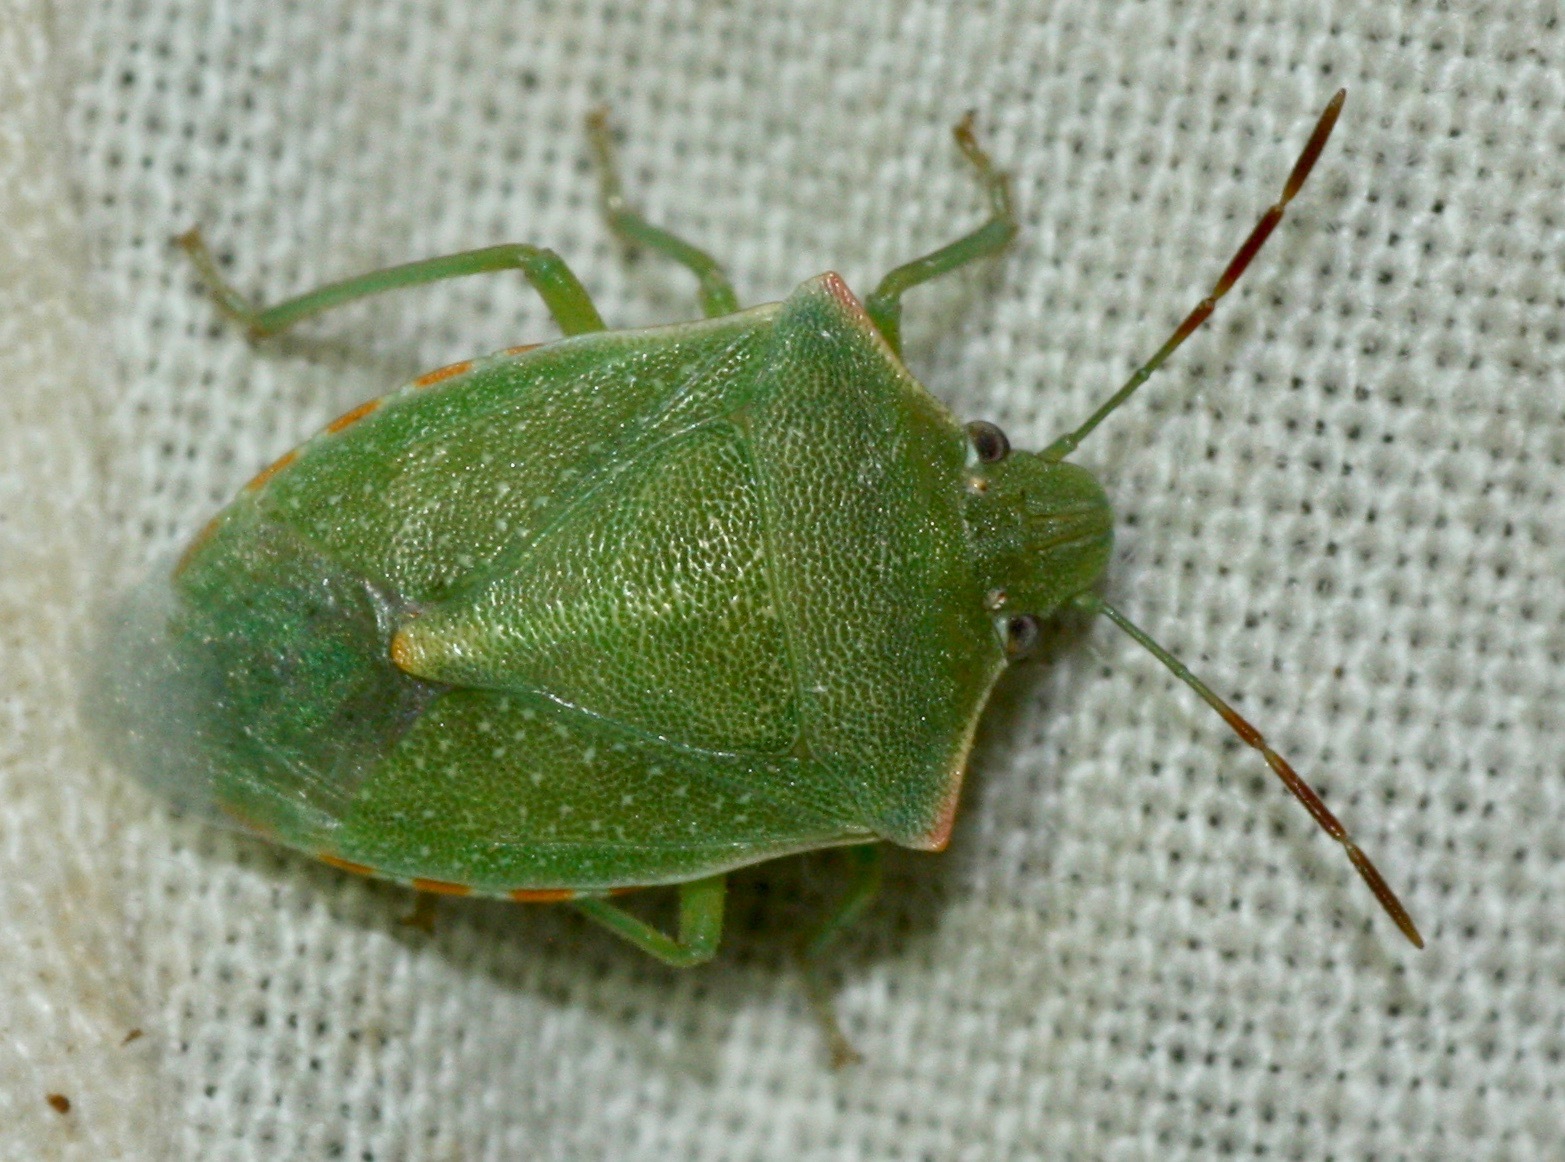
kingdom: Animalia
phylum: Arthropoda
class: Insecta
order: Hemiptera
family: Pentatomidae
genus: Thyanta
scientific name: Thyanta accerra
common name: Stink bug
